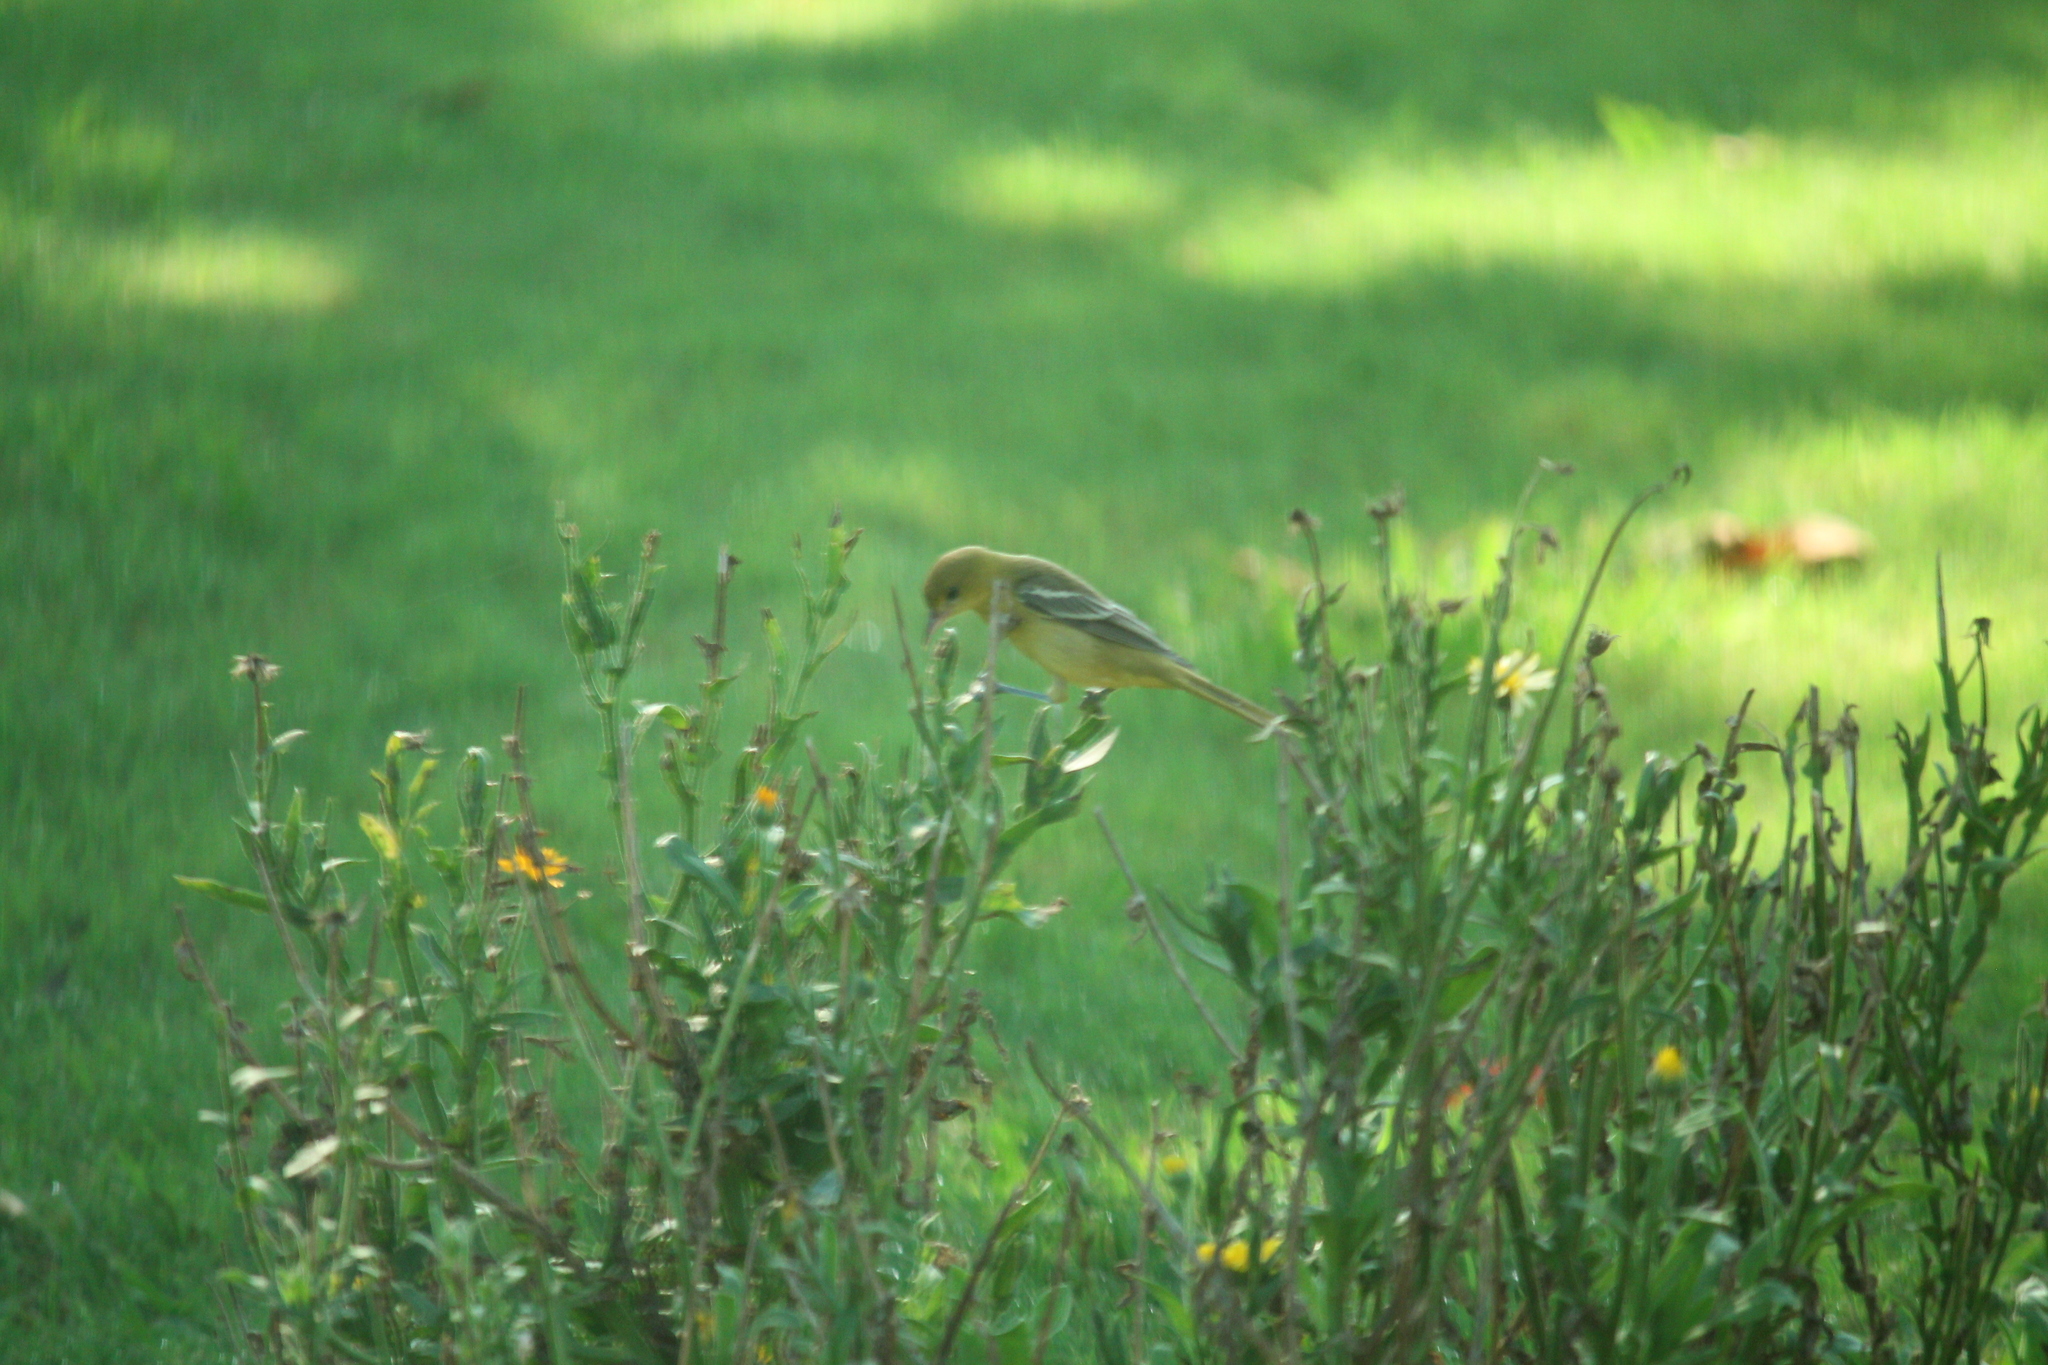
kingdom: Animalia
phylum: Chordata
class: Aves
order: Passeriformes
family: Icteridae
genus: Icterus
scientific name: Icterus spurius
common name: Orchard oriole
